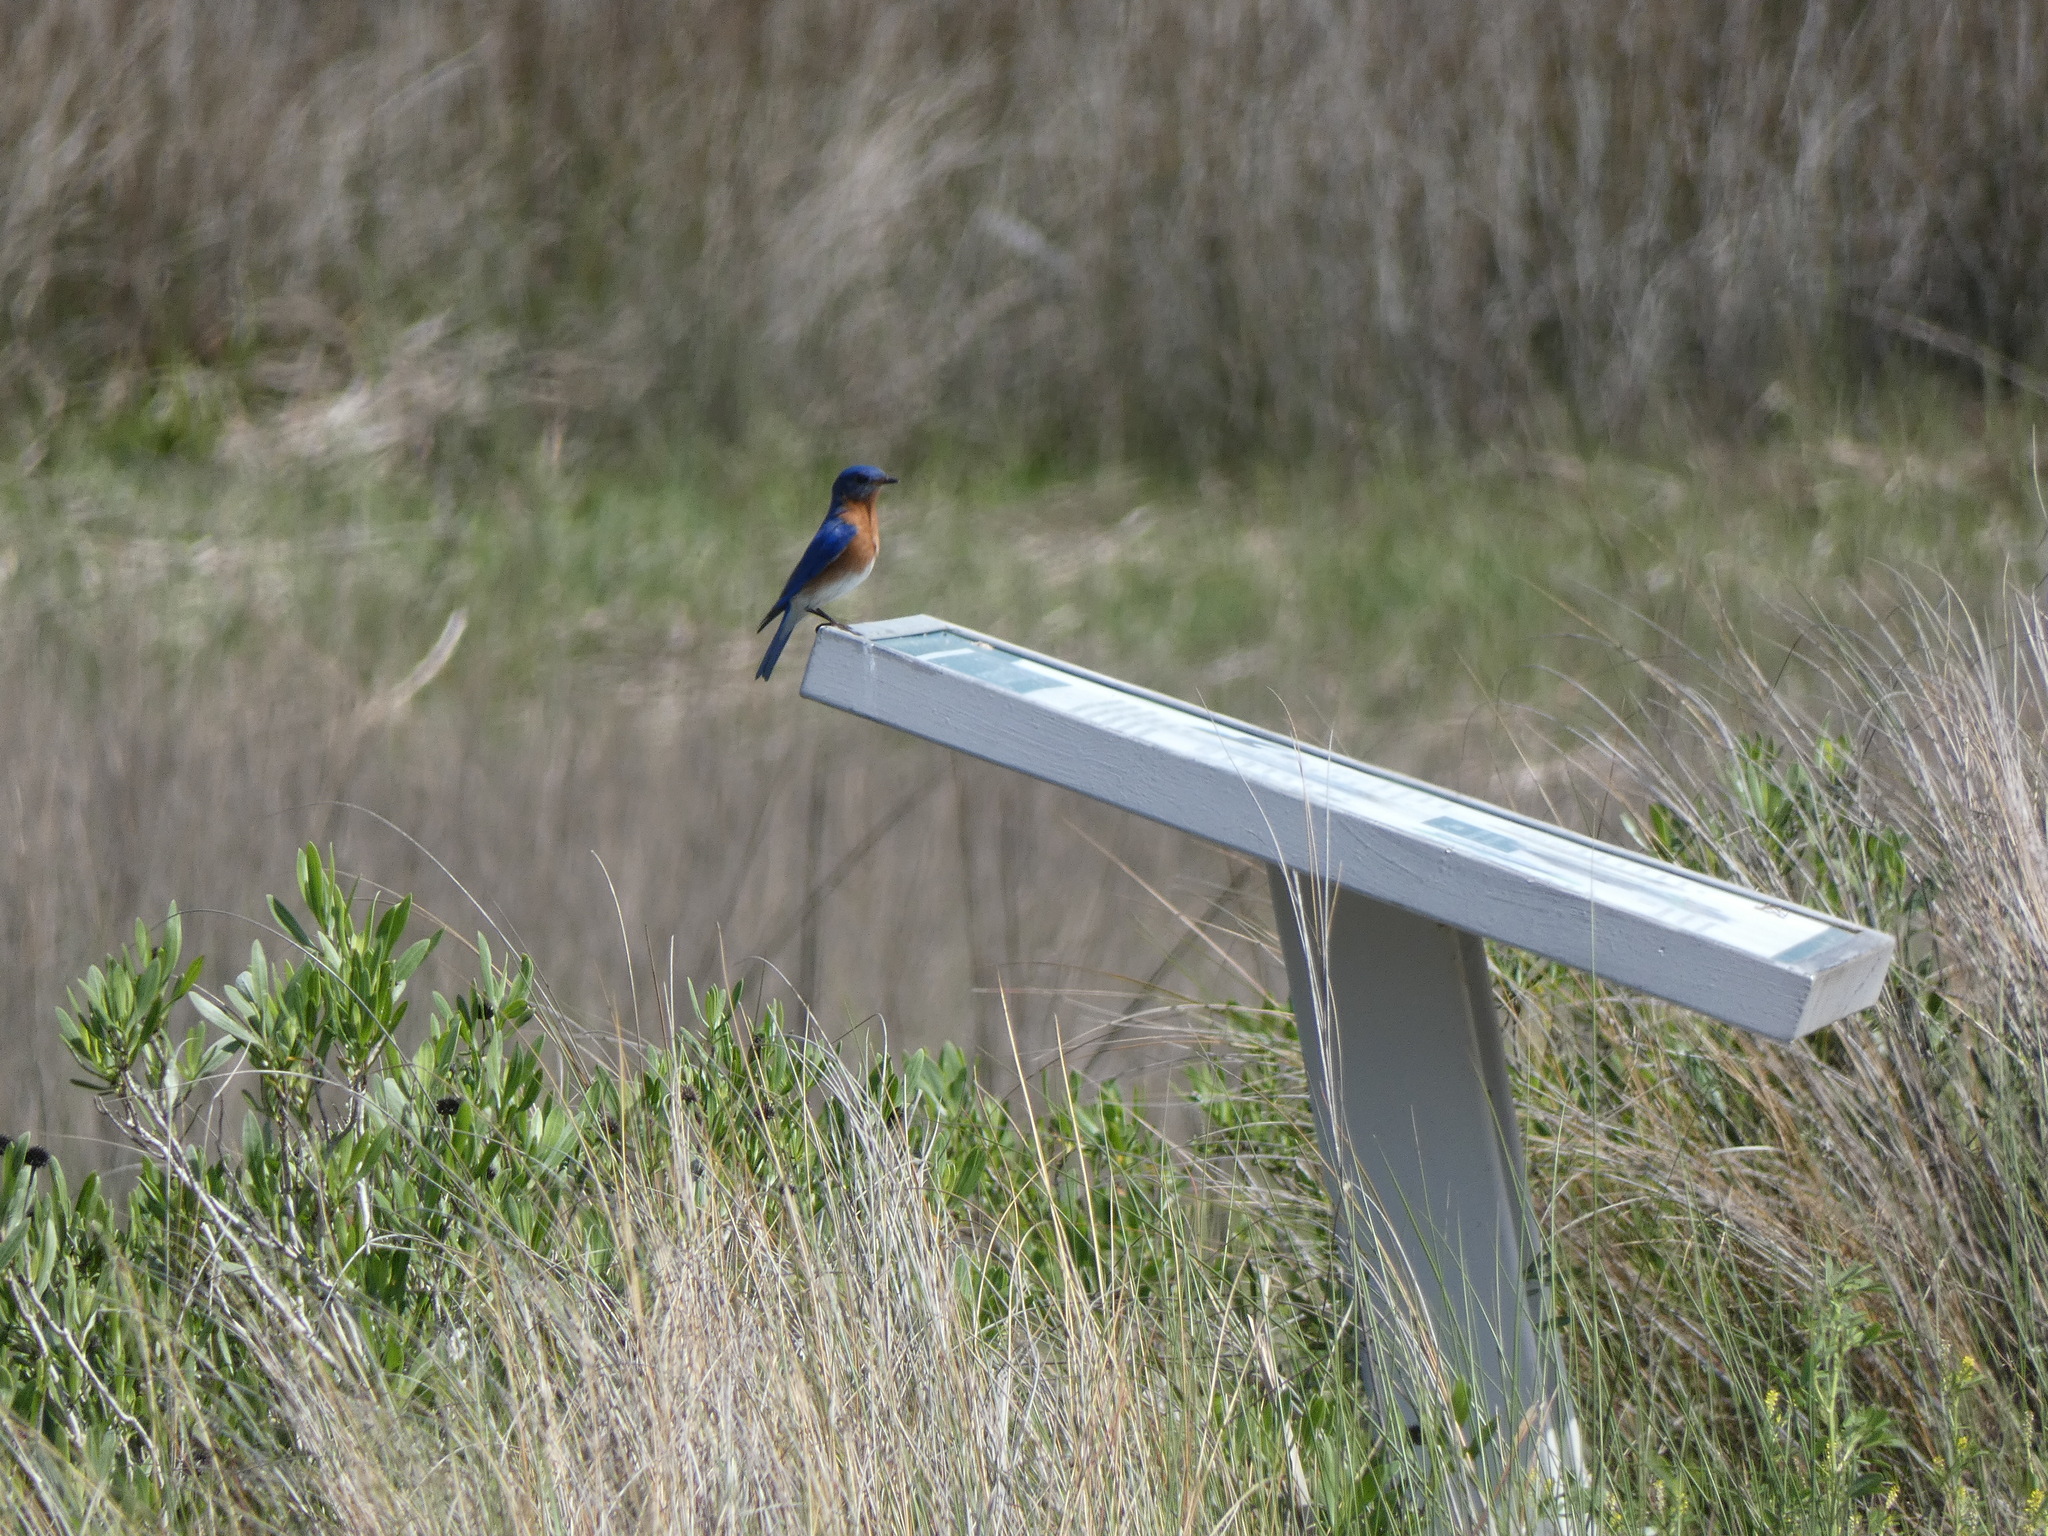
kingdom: Animalia
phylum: Chordata
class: Aves
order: Passeriformes
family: Turdidae
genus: Sialia
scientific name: Sialia sialis
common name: Eastern bluebird
